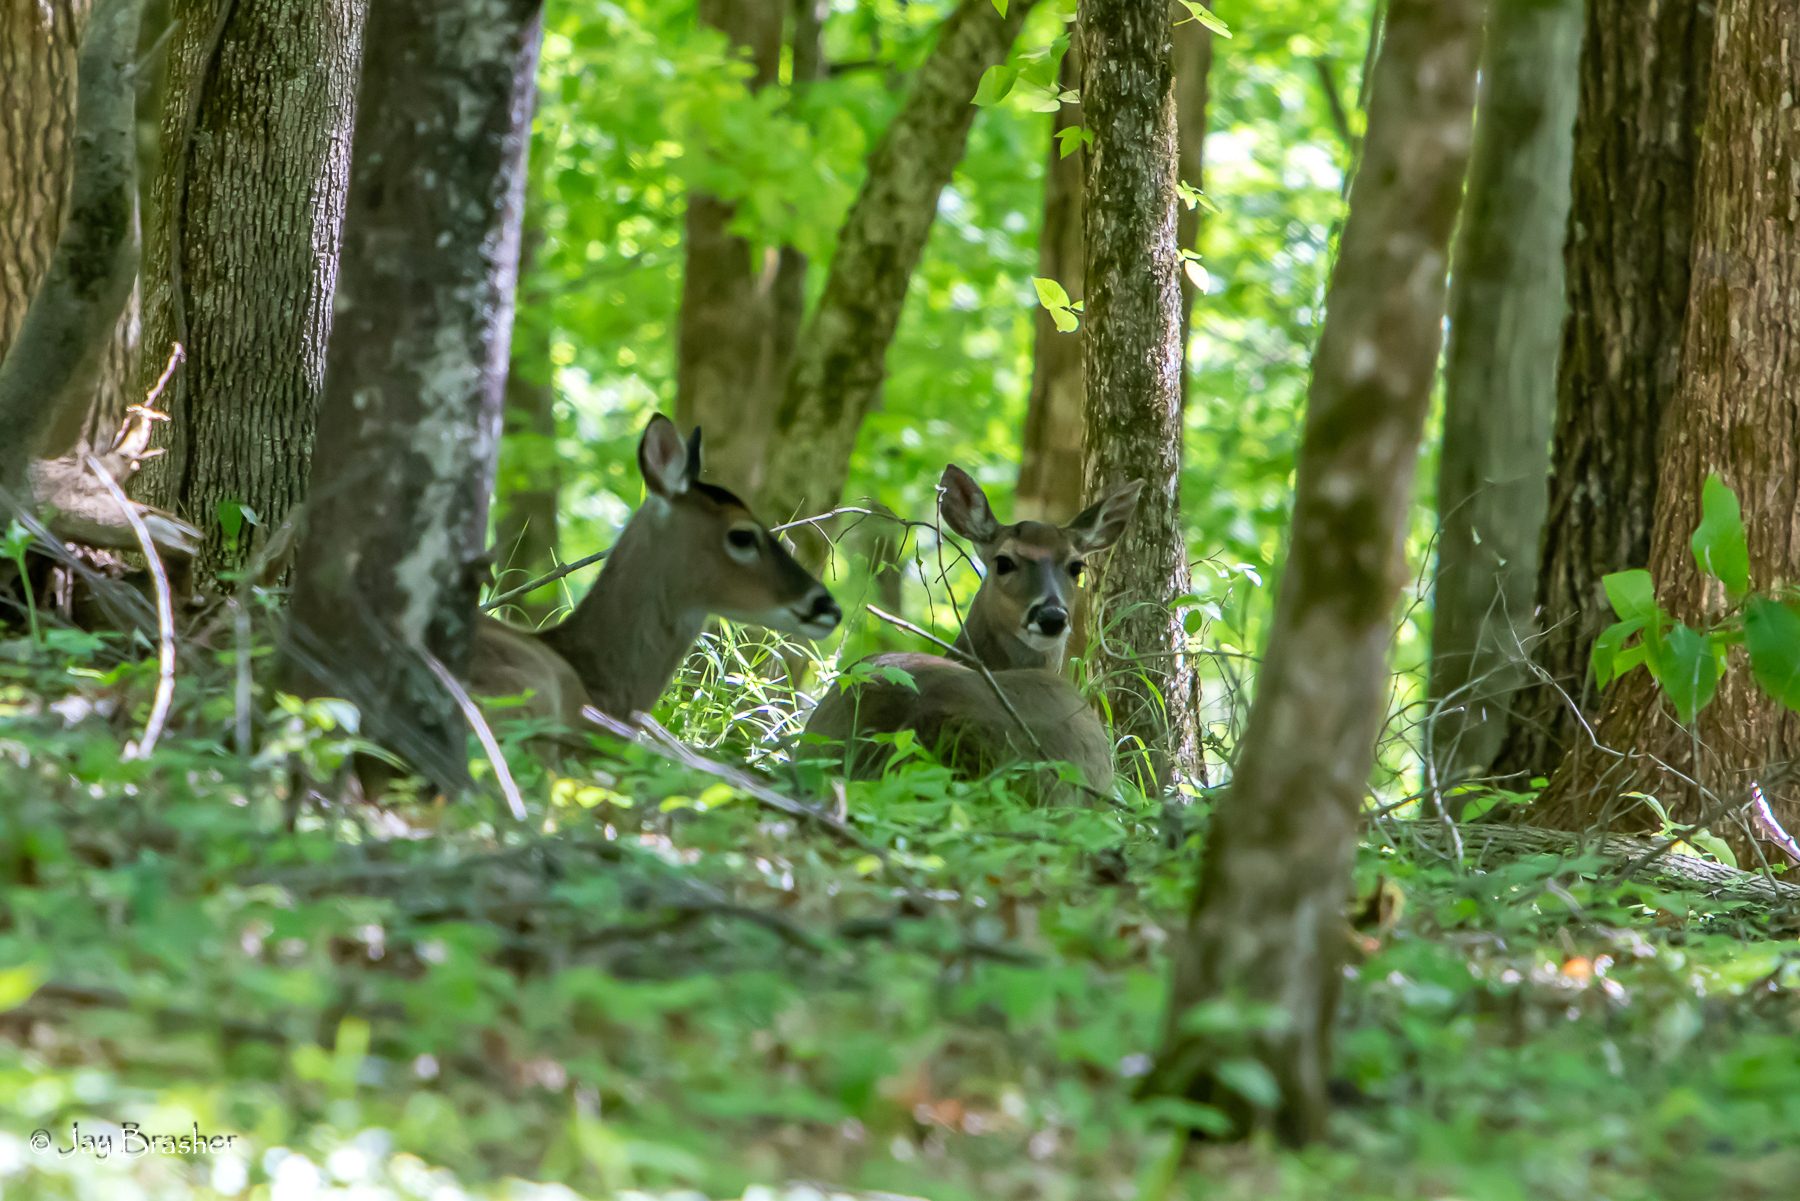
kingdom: Animalia
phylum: Chordata
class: Mammalia
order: Artiodactyla
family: Cervidae
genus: Odocoileus
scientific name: Odocoileus virginianus
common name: White-tailed deer
